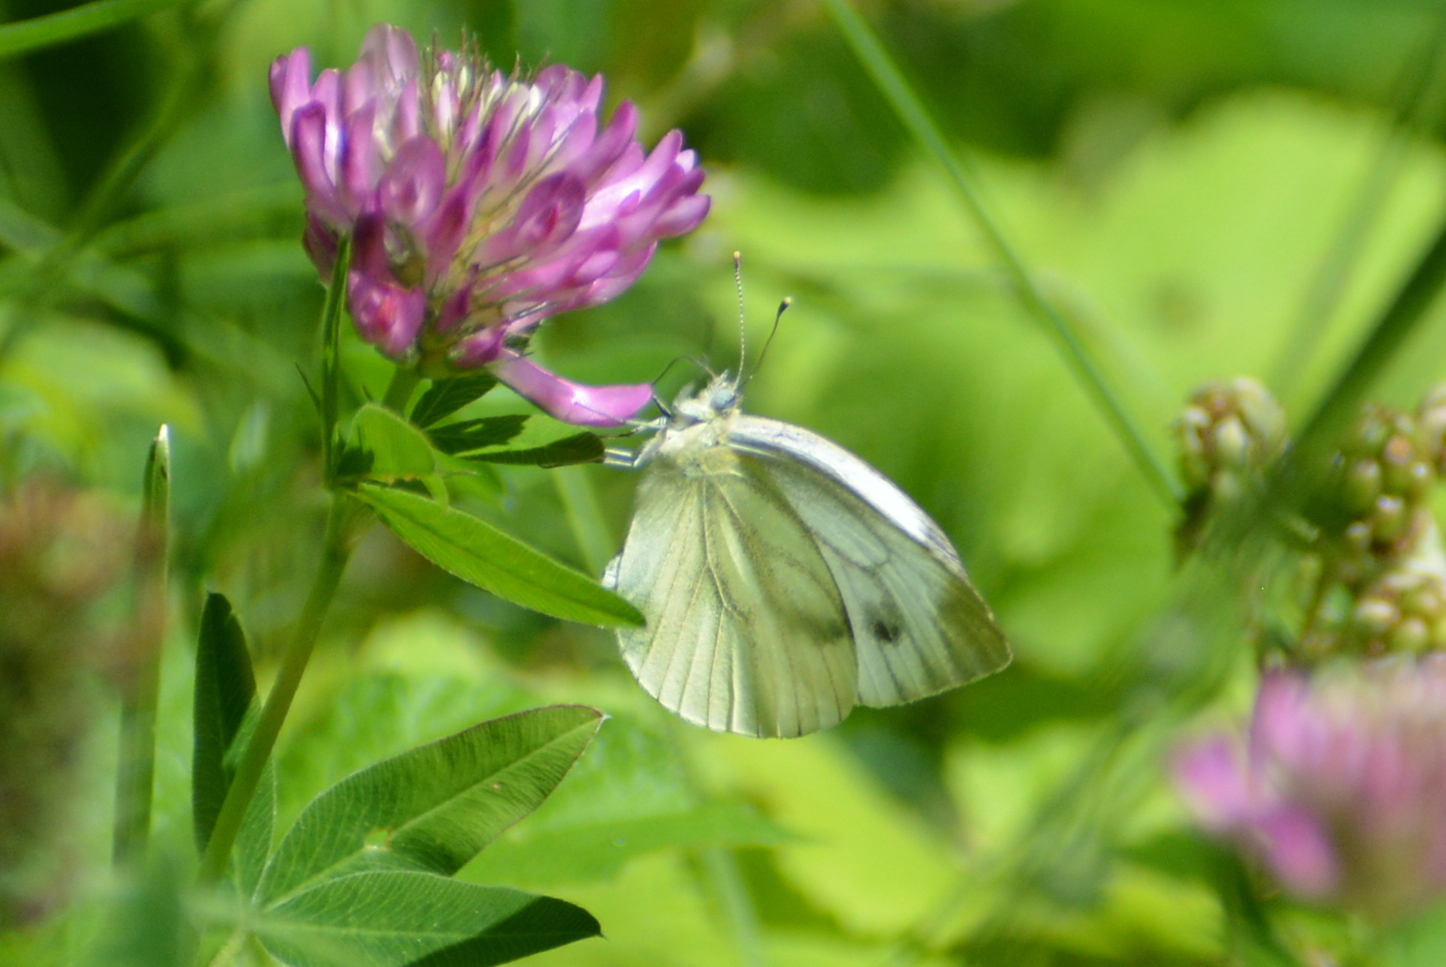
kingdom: Animalia
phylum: Arthropoda
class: Insecta
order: Lepidoptera
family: Pieridae
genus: Pieris
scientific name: Pieris napi
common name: Green-veined white
